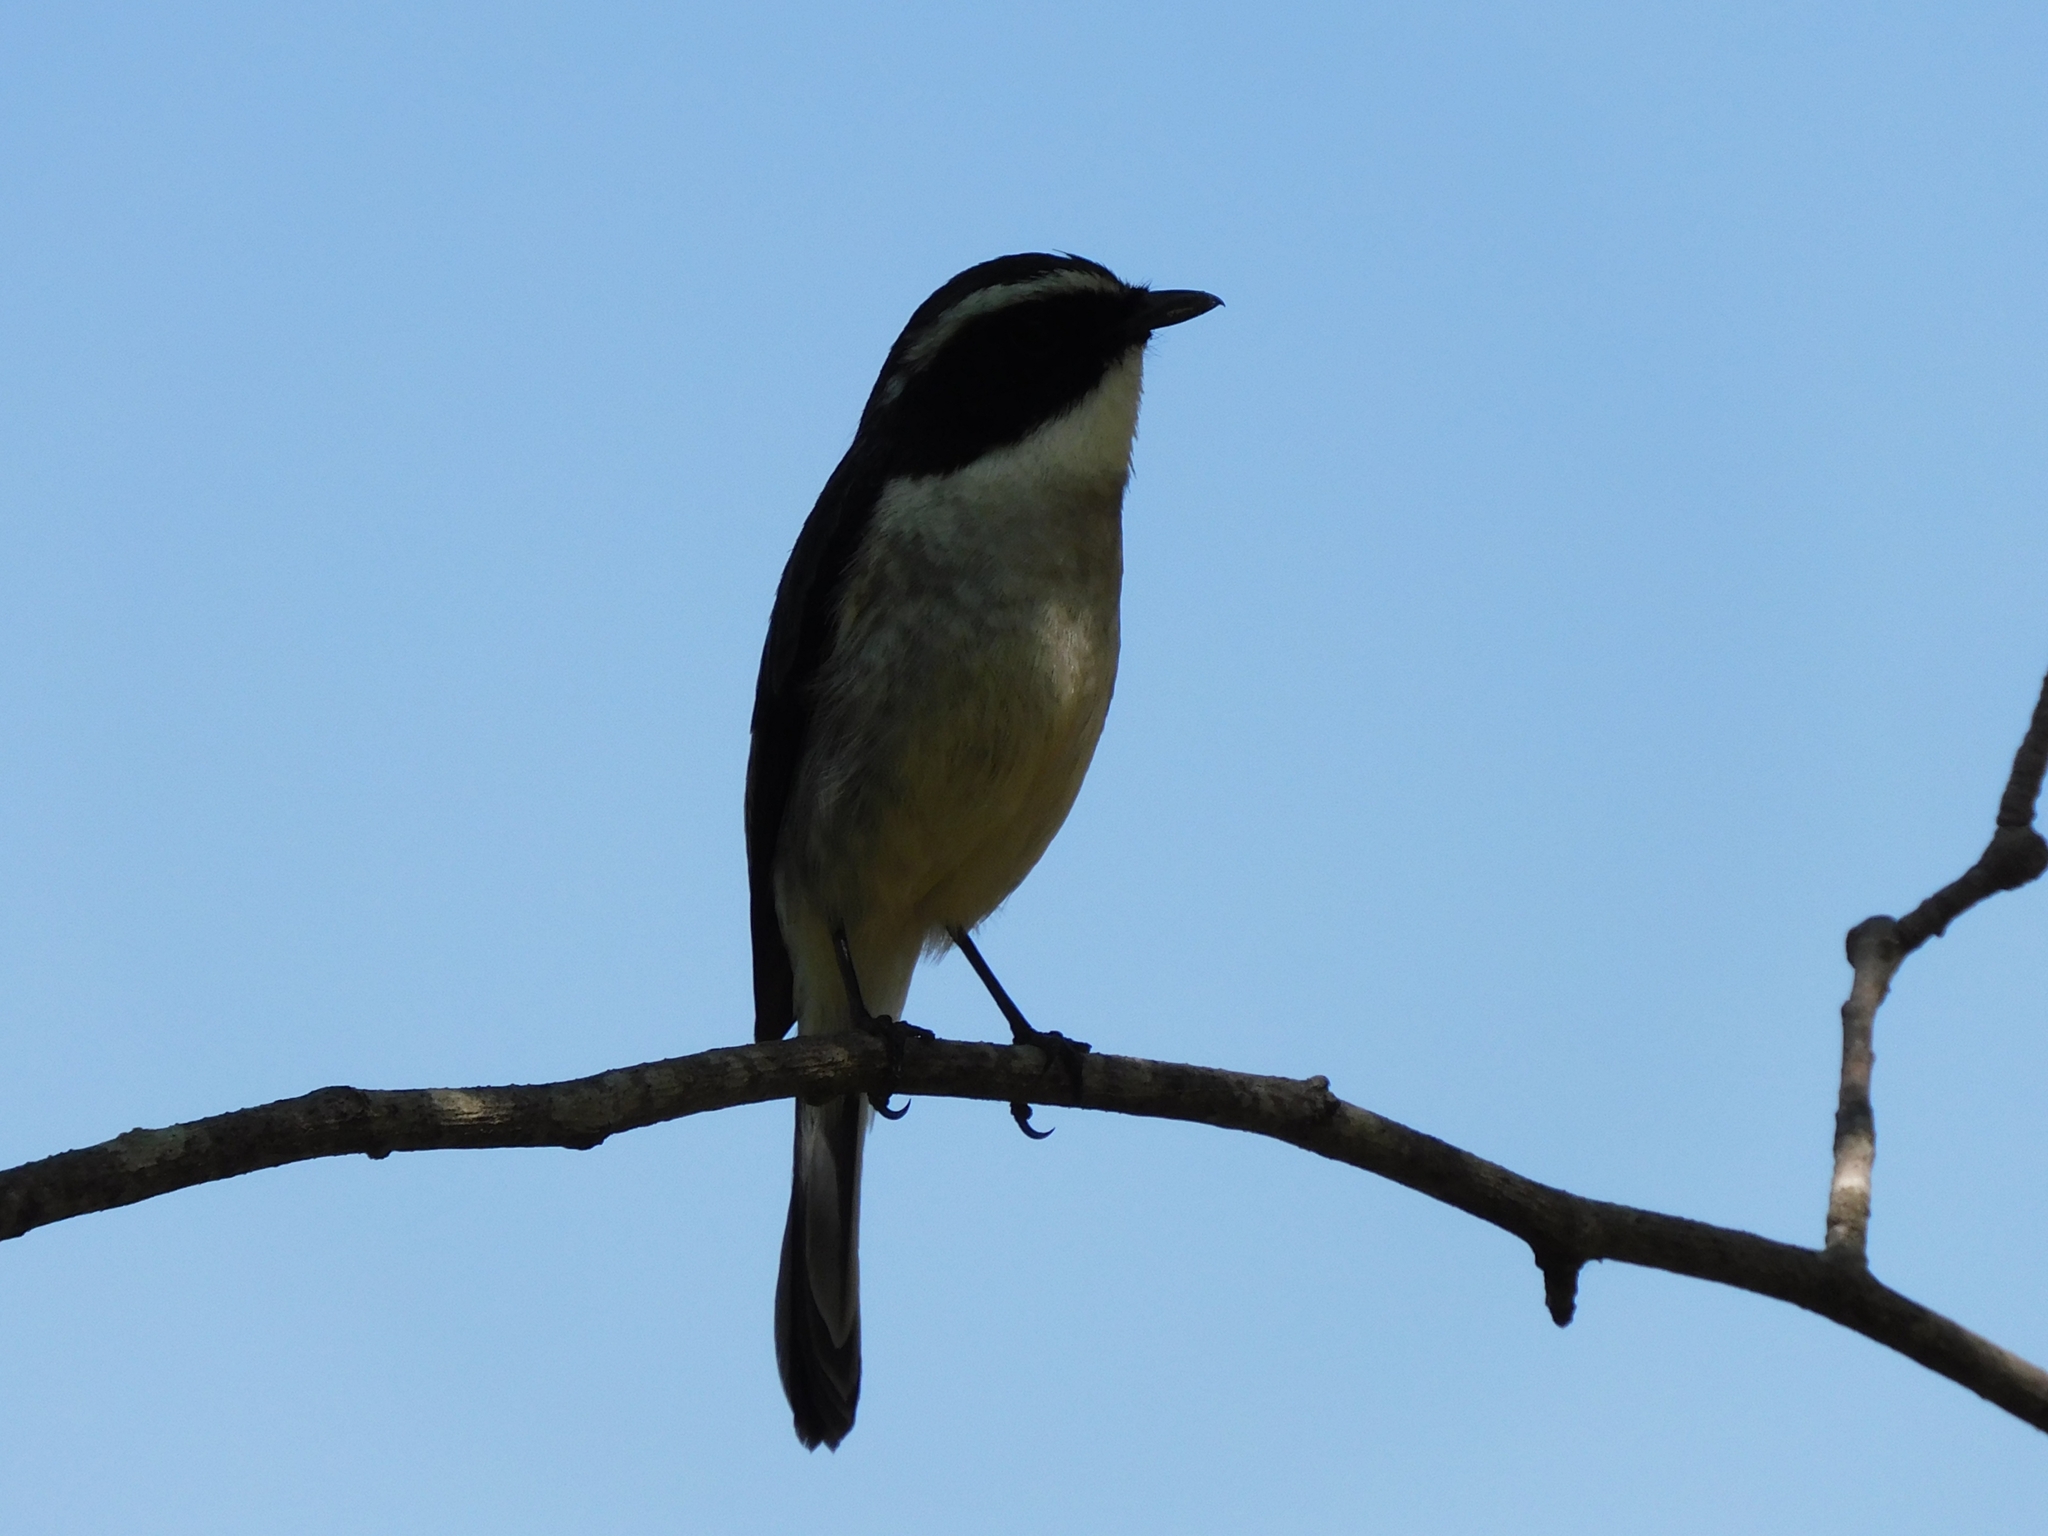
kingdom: Animalia
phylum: Chordata
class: Aves
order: Passeriformes
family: Muscicapidae
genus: Saxicola
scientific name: Saxicola ferreus
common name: Grey bush chat
